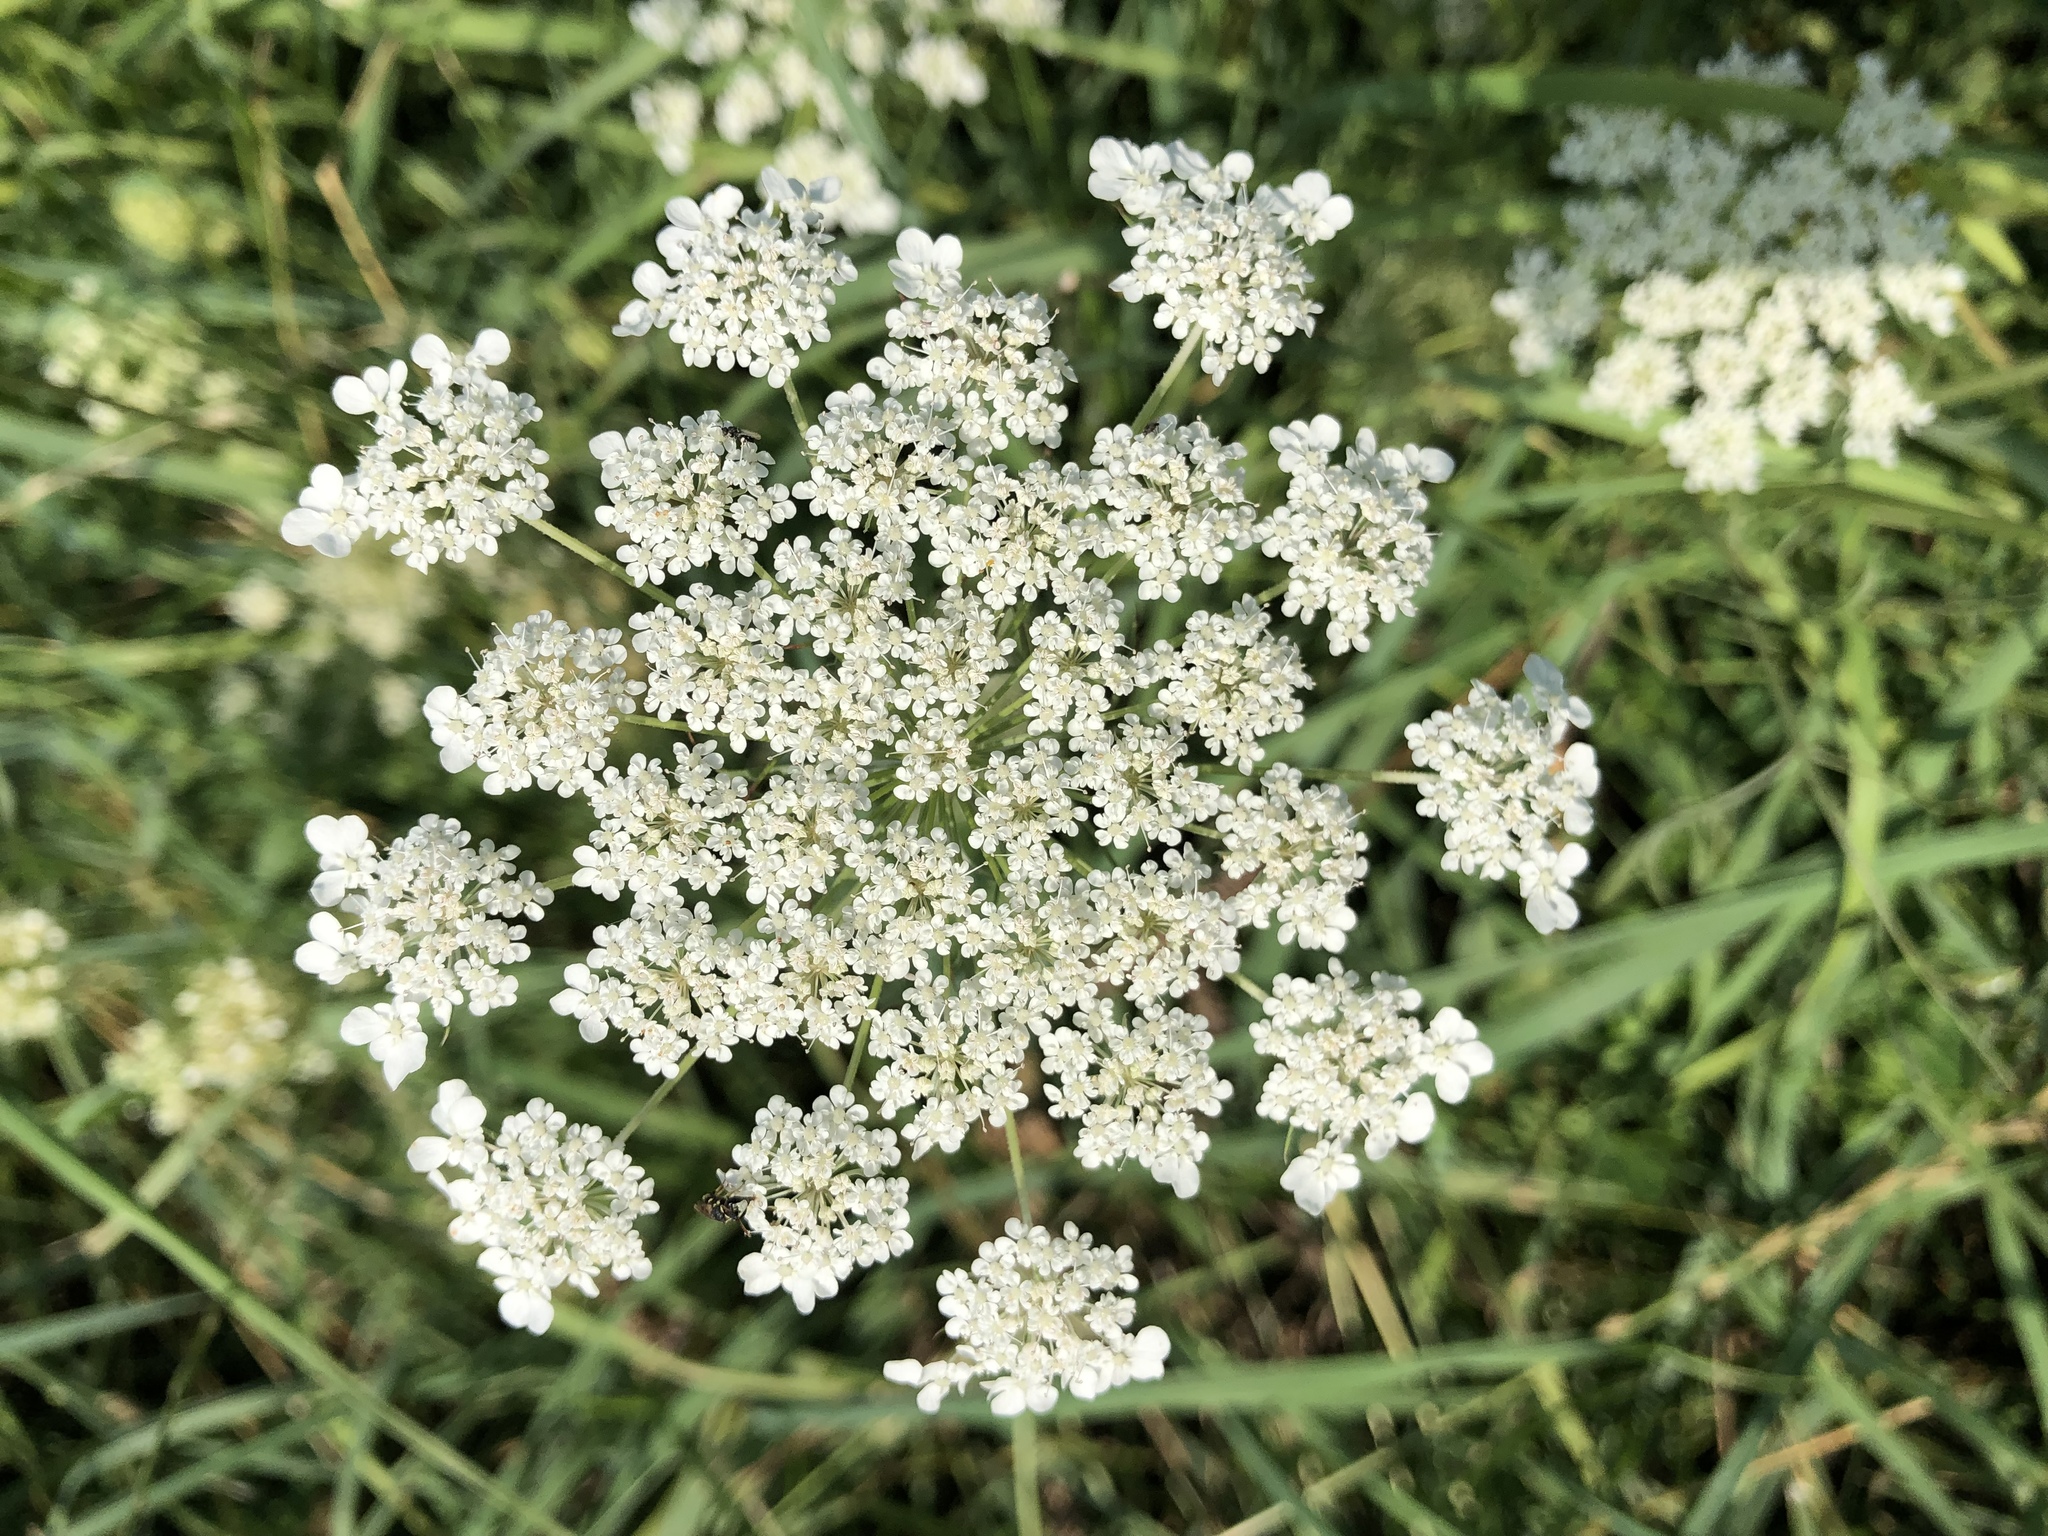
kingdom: Plantae
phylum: Tracheophyta
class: Magnoliopsida
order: Apiales
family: Apiaceae
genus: Daucus
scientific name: Daucus carota
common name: Wild carrot
